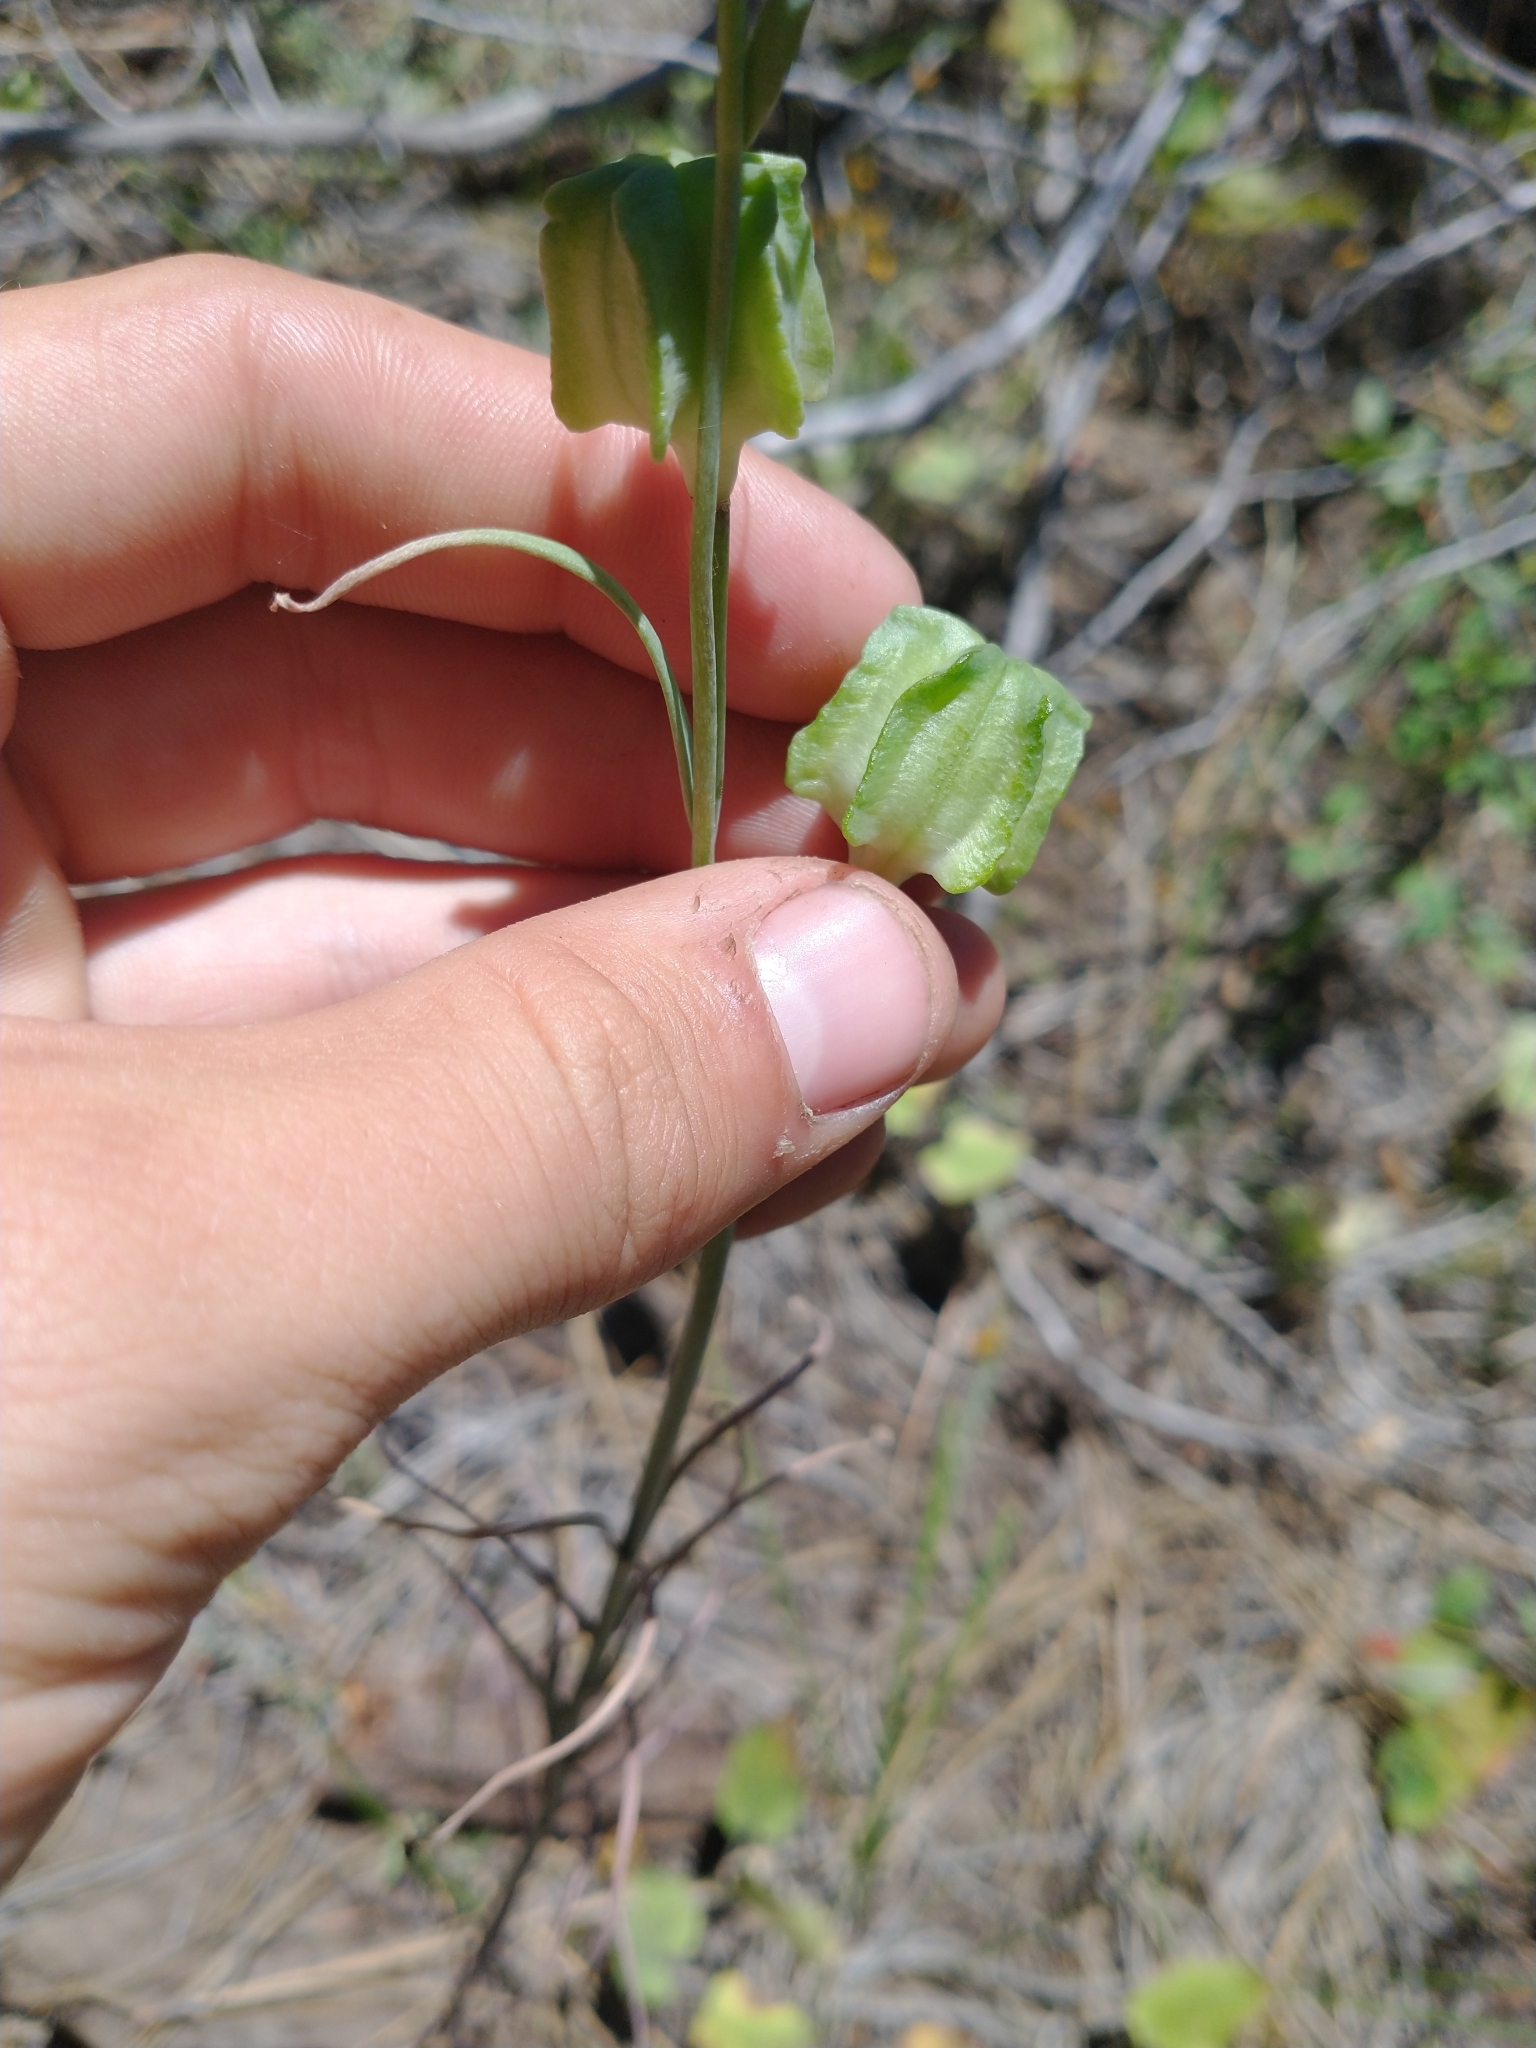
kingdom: Plantae
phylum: Tracheophyta
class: Liliopsida
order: Liliales
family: Liliaceae
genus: Fritillaria
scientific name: Fritillaria atropurpurea
